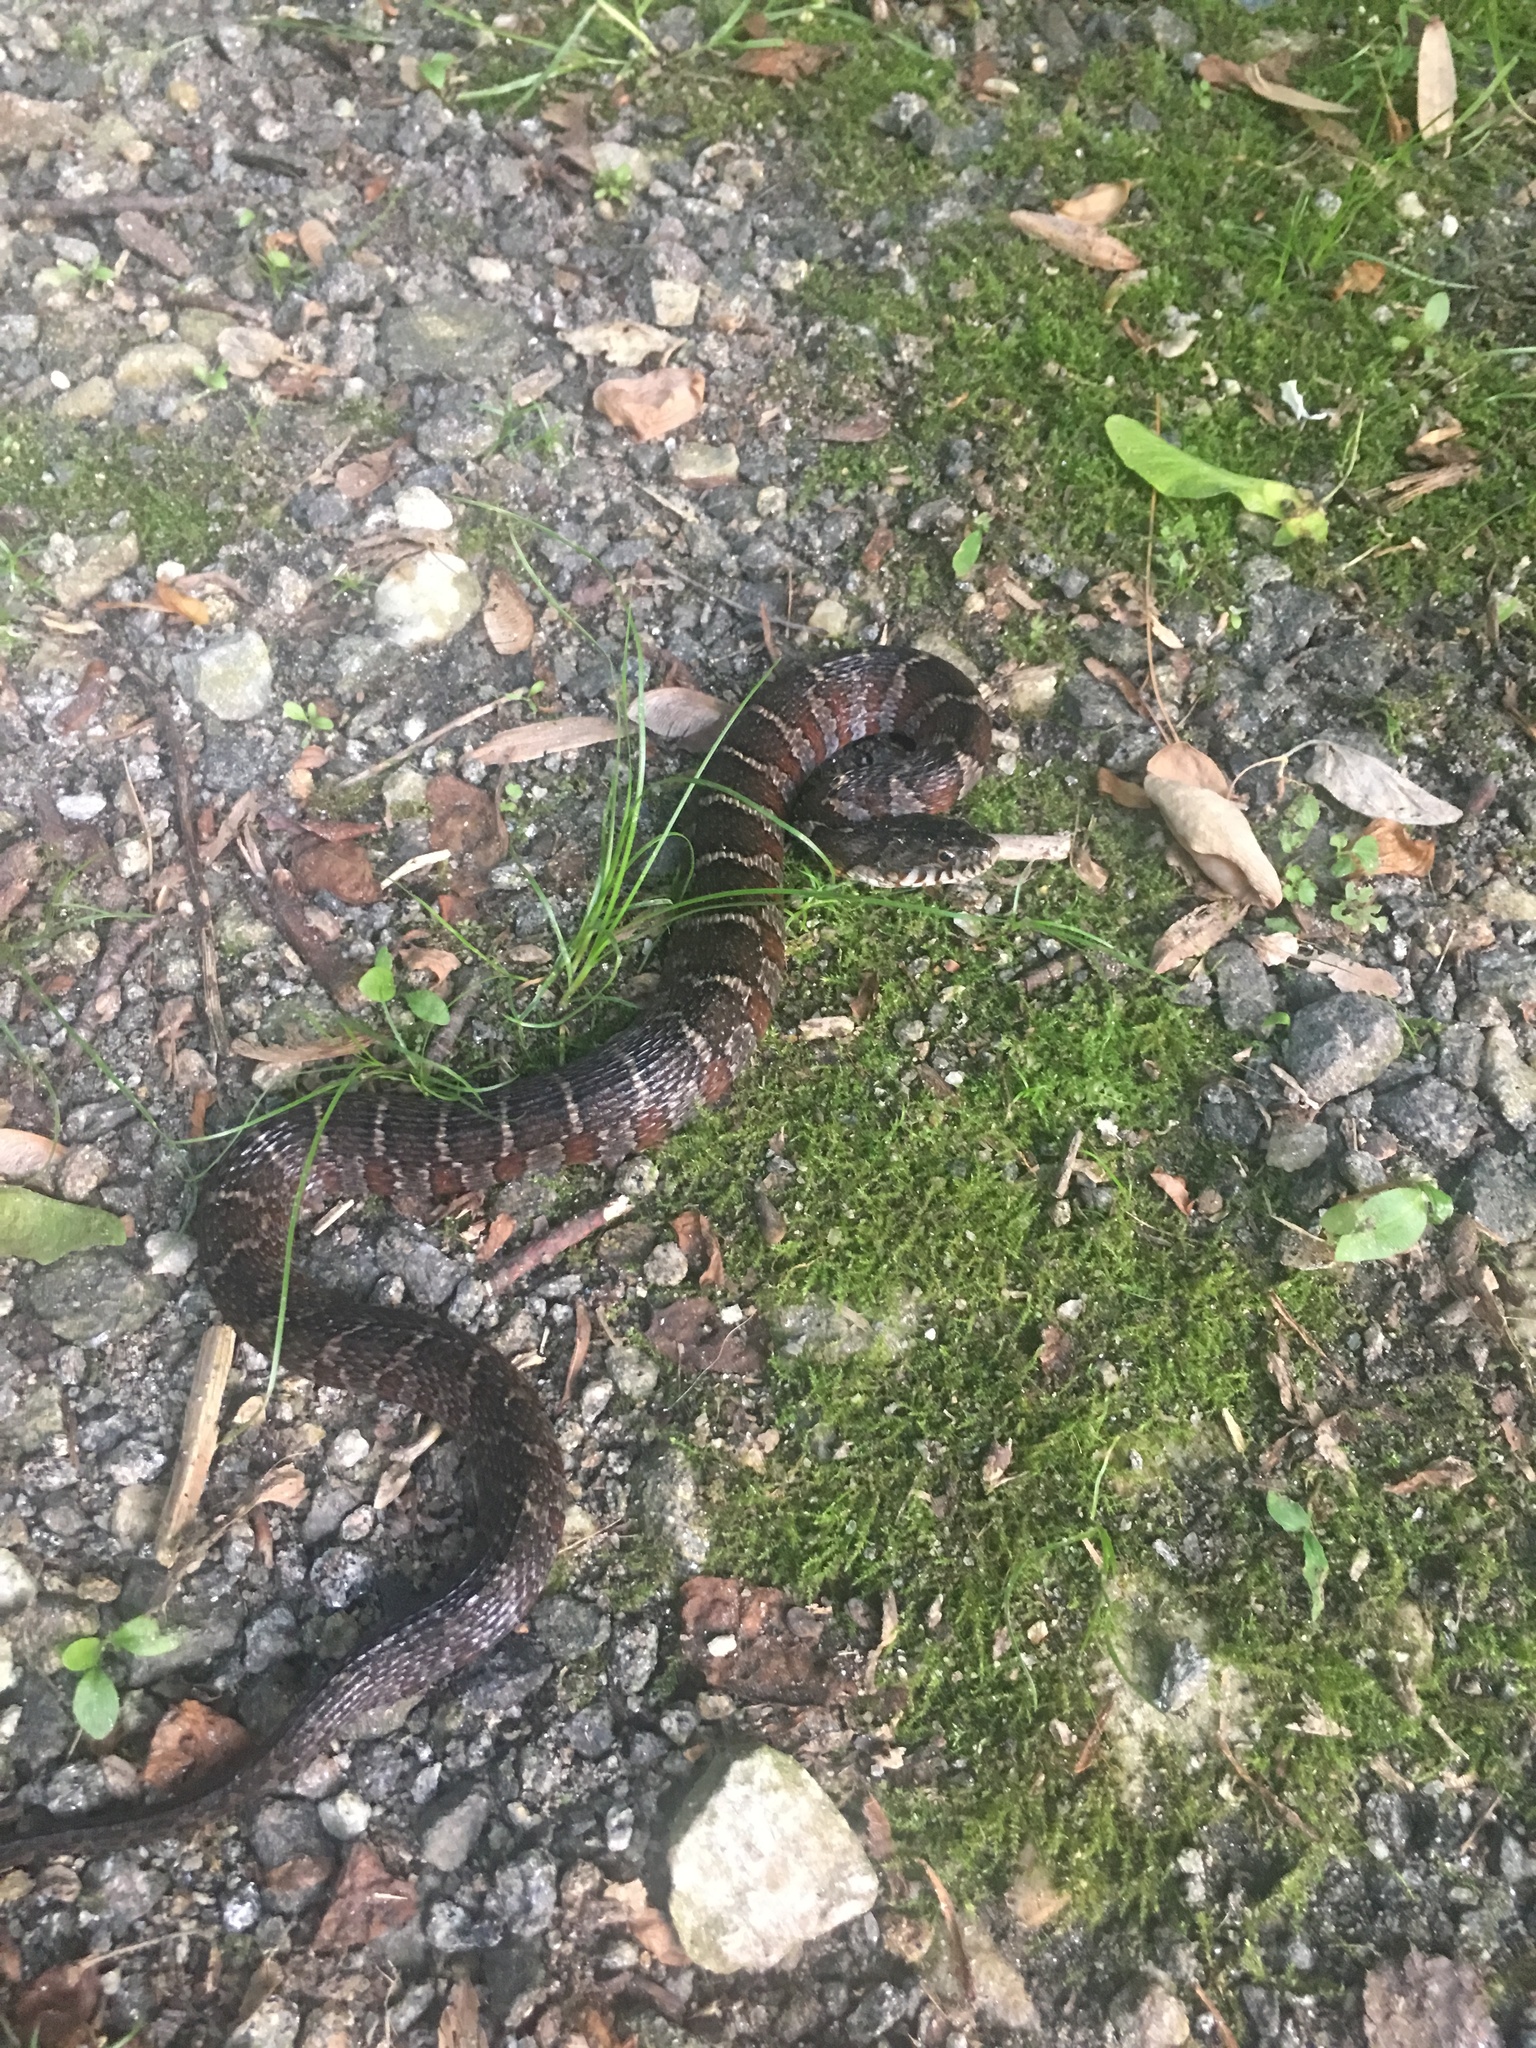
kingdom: Animalia
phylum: Chordata
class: Squamata
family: Colubridae
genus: Nerodia
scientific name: Nerodia sipedon
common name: Northern water snake
